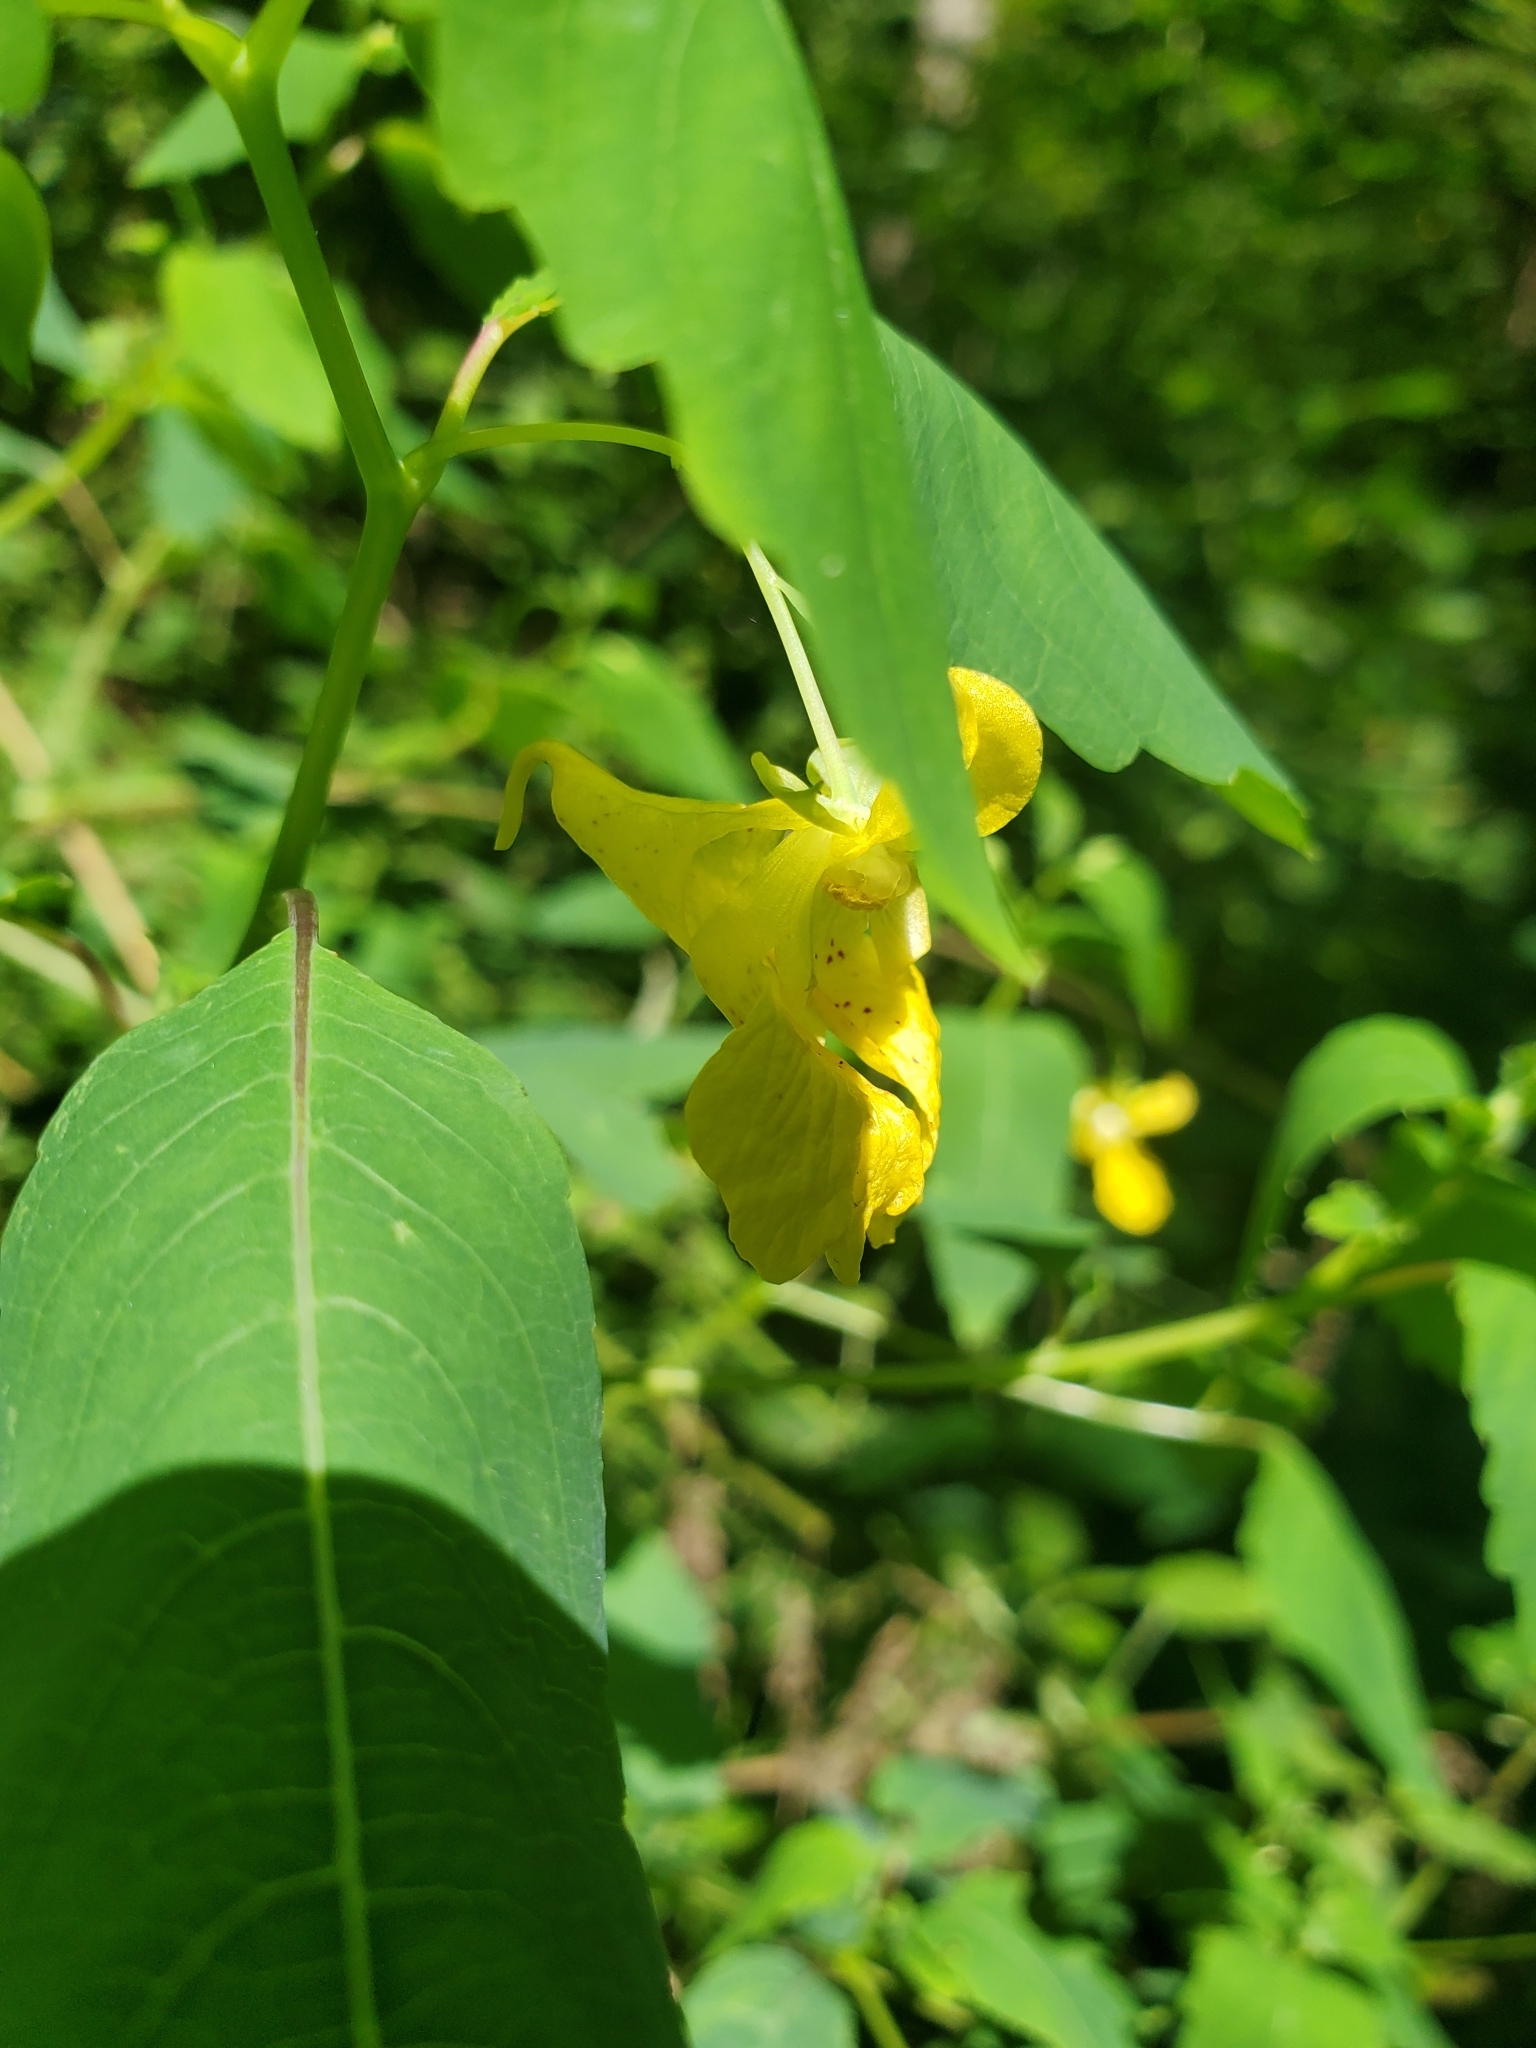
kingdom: Plantae
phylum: Tracheophyta
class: Magnoliopsida
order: Ericales
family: Balsaminaceae
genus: Impatiens
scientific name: Impatiens pallida
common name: Pale snapweed
